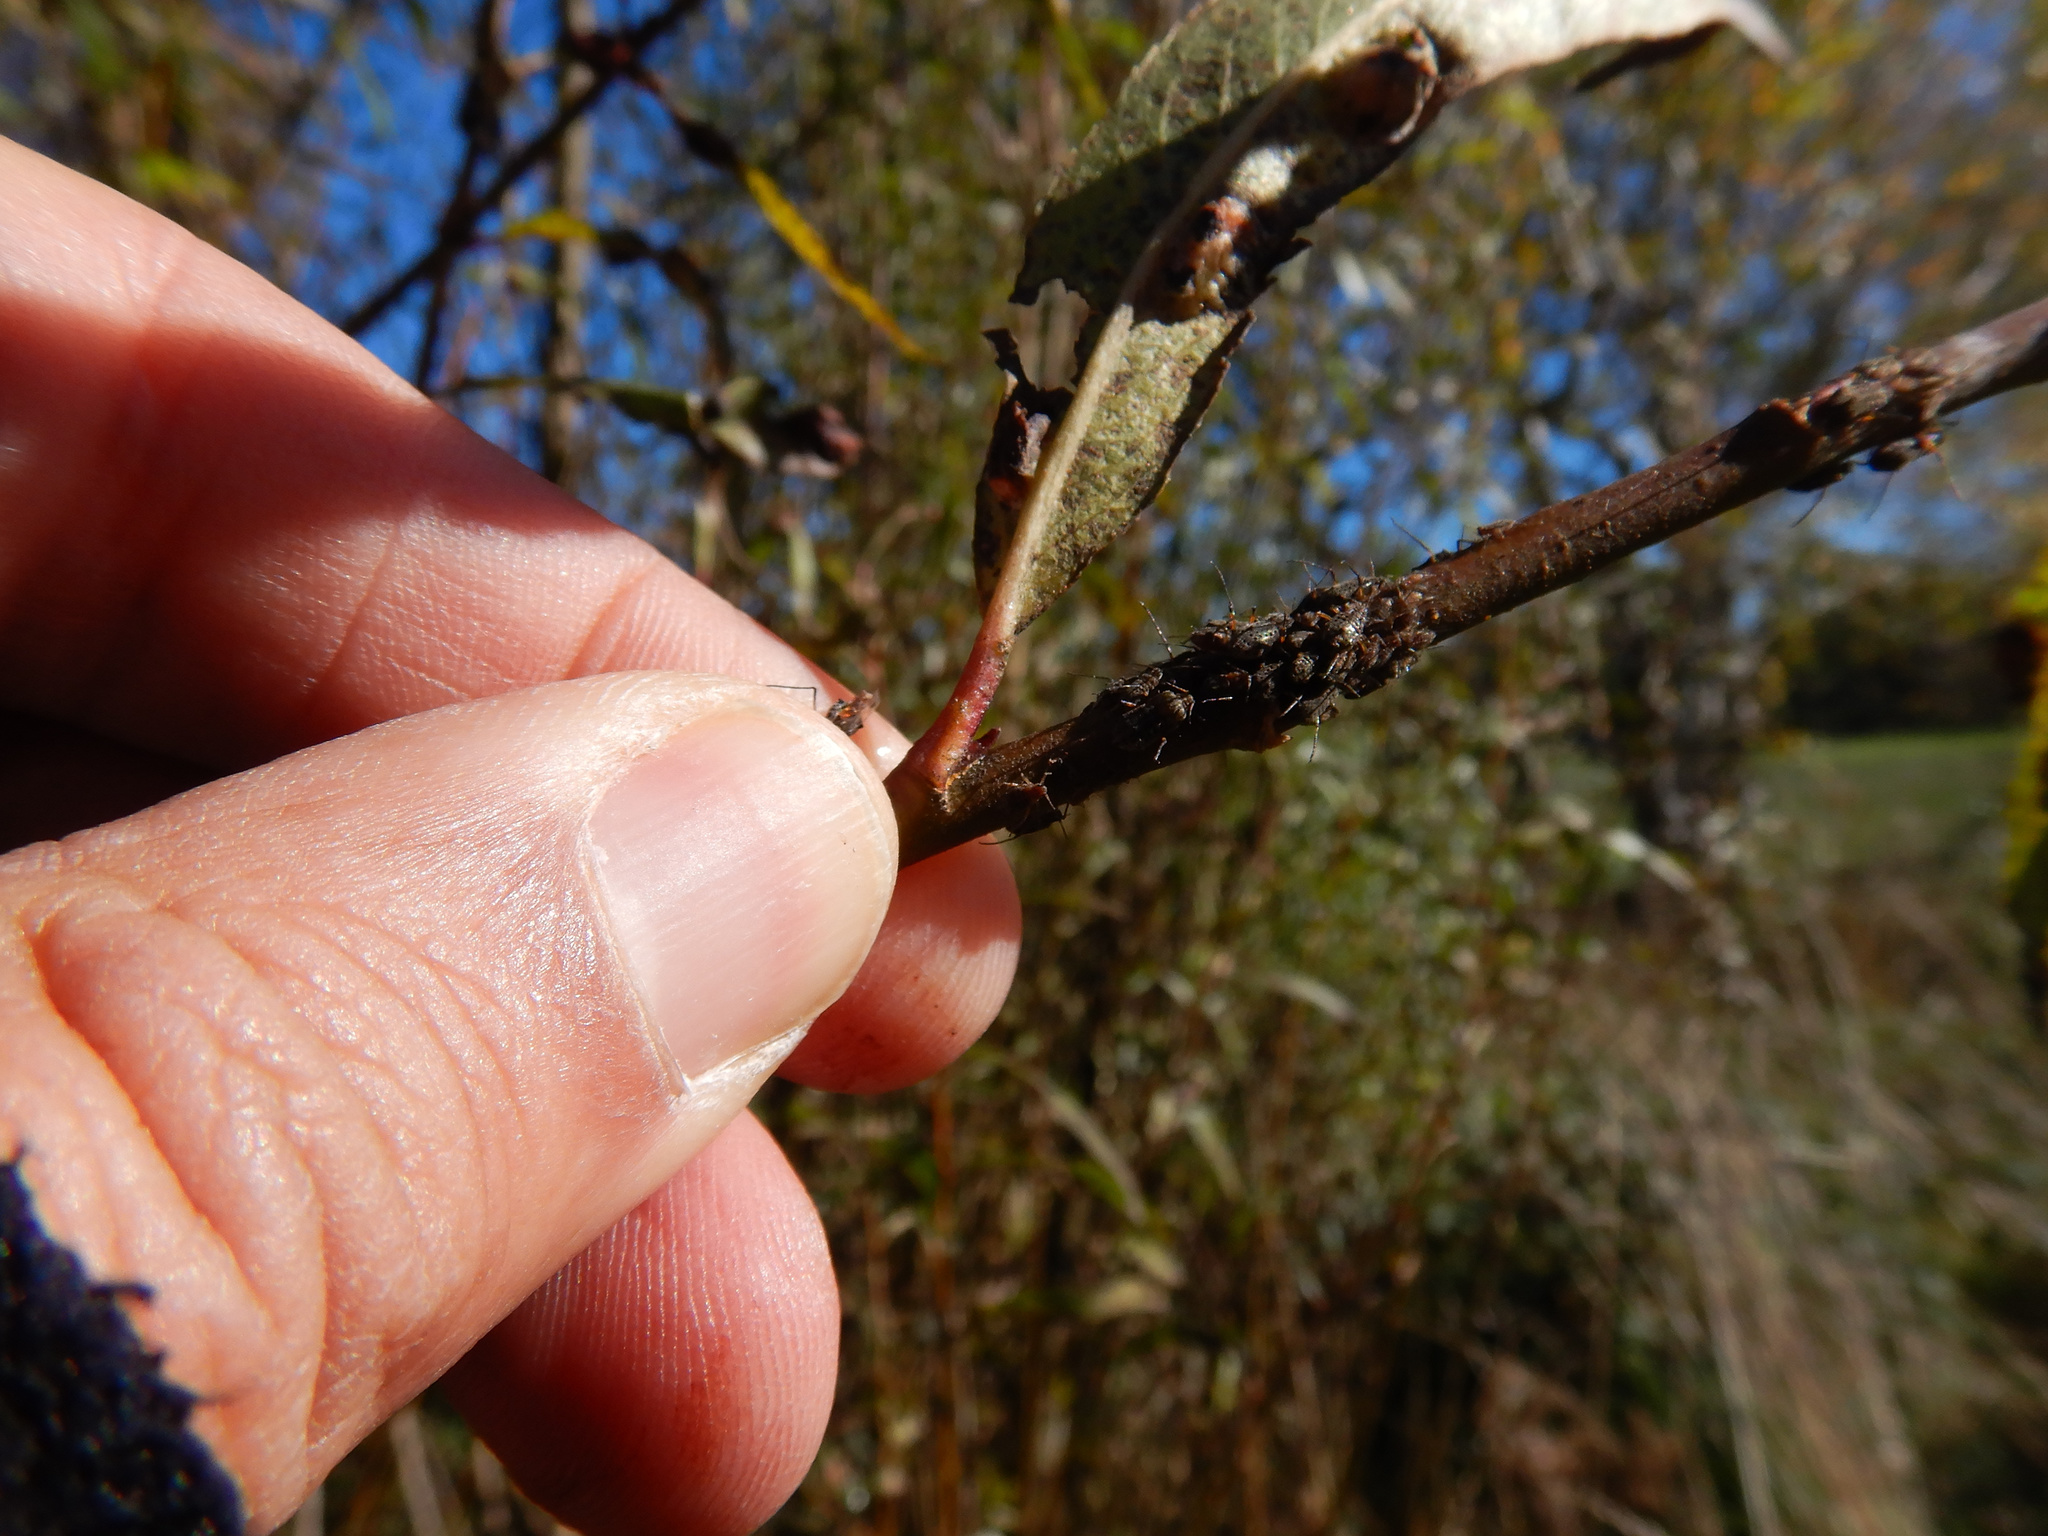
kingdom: Animalia
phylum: Arthropoda
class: Insecta
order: Hemiptera
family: Aphididae
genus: Tuberolachnus
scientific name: Tuberolachnus salignus
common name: Giant willow aphid
